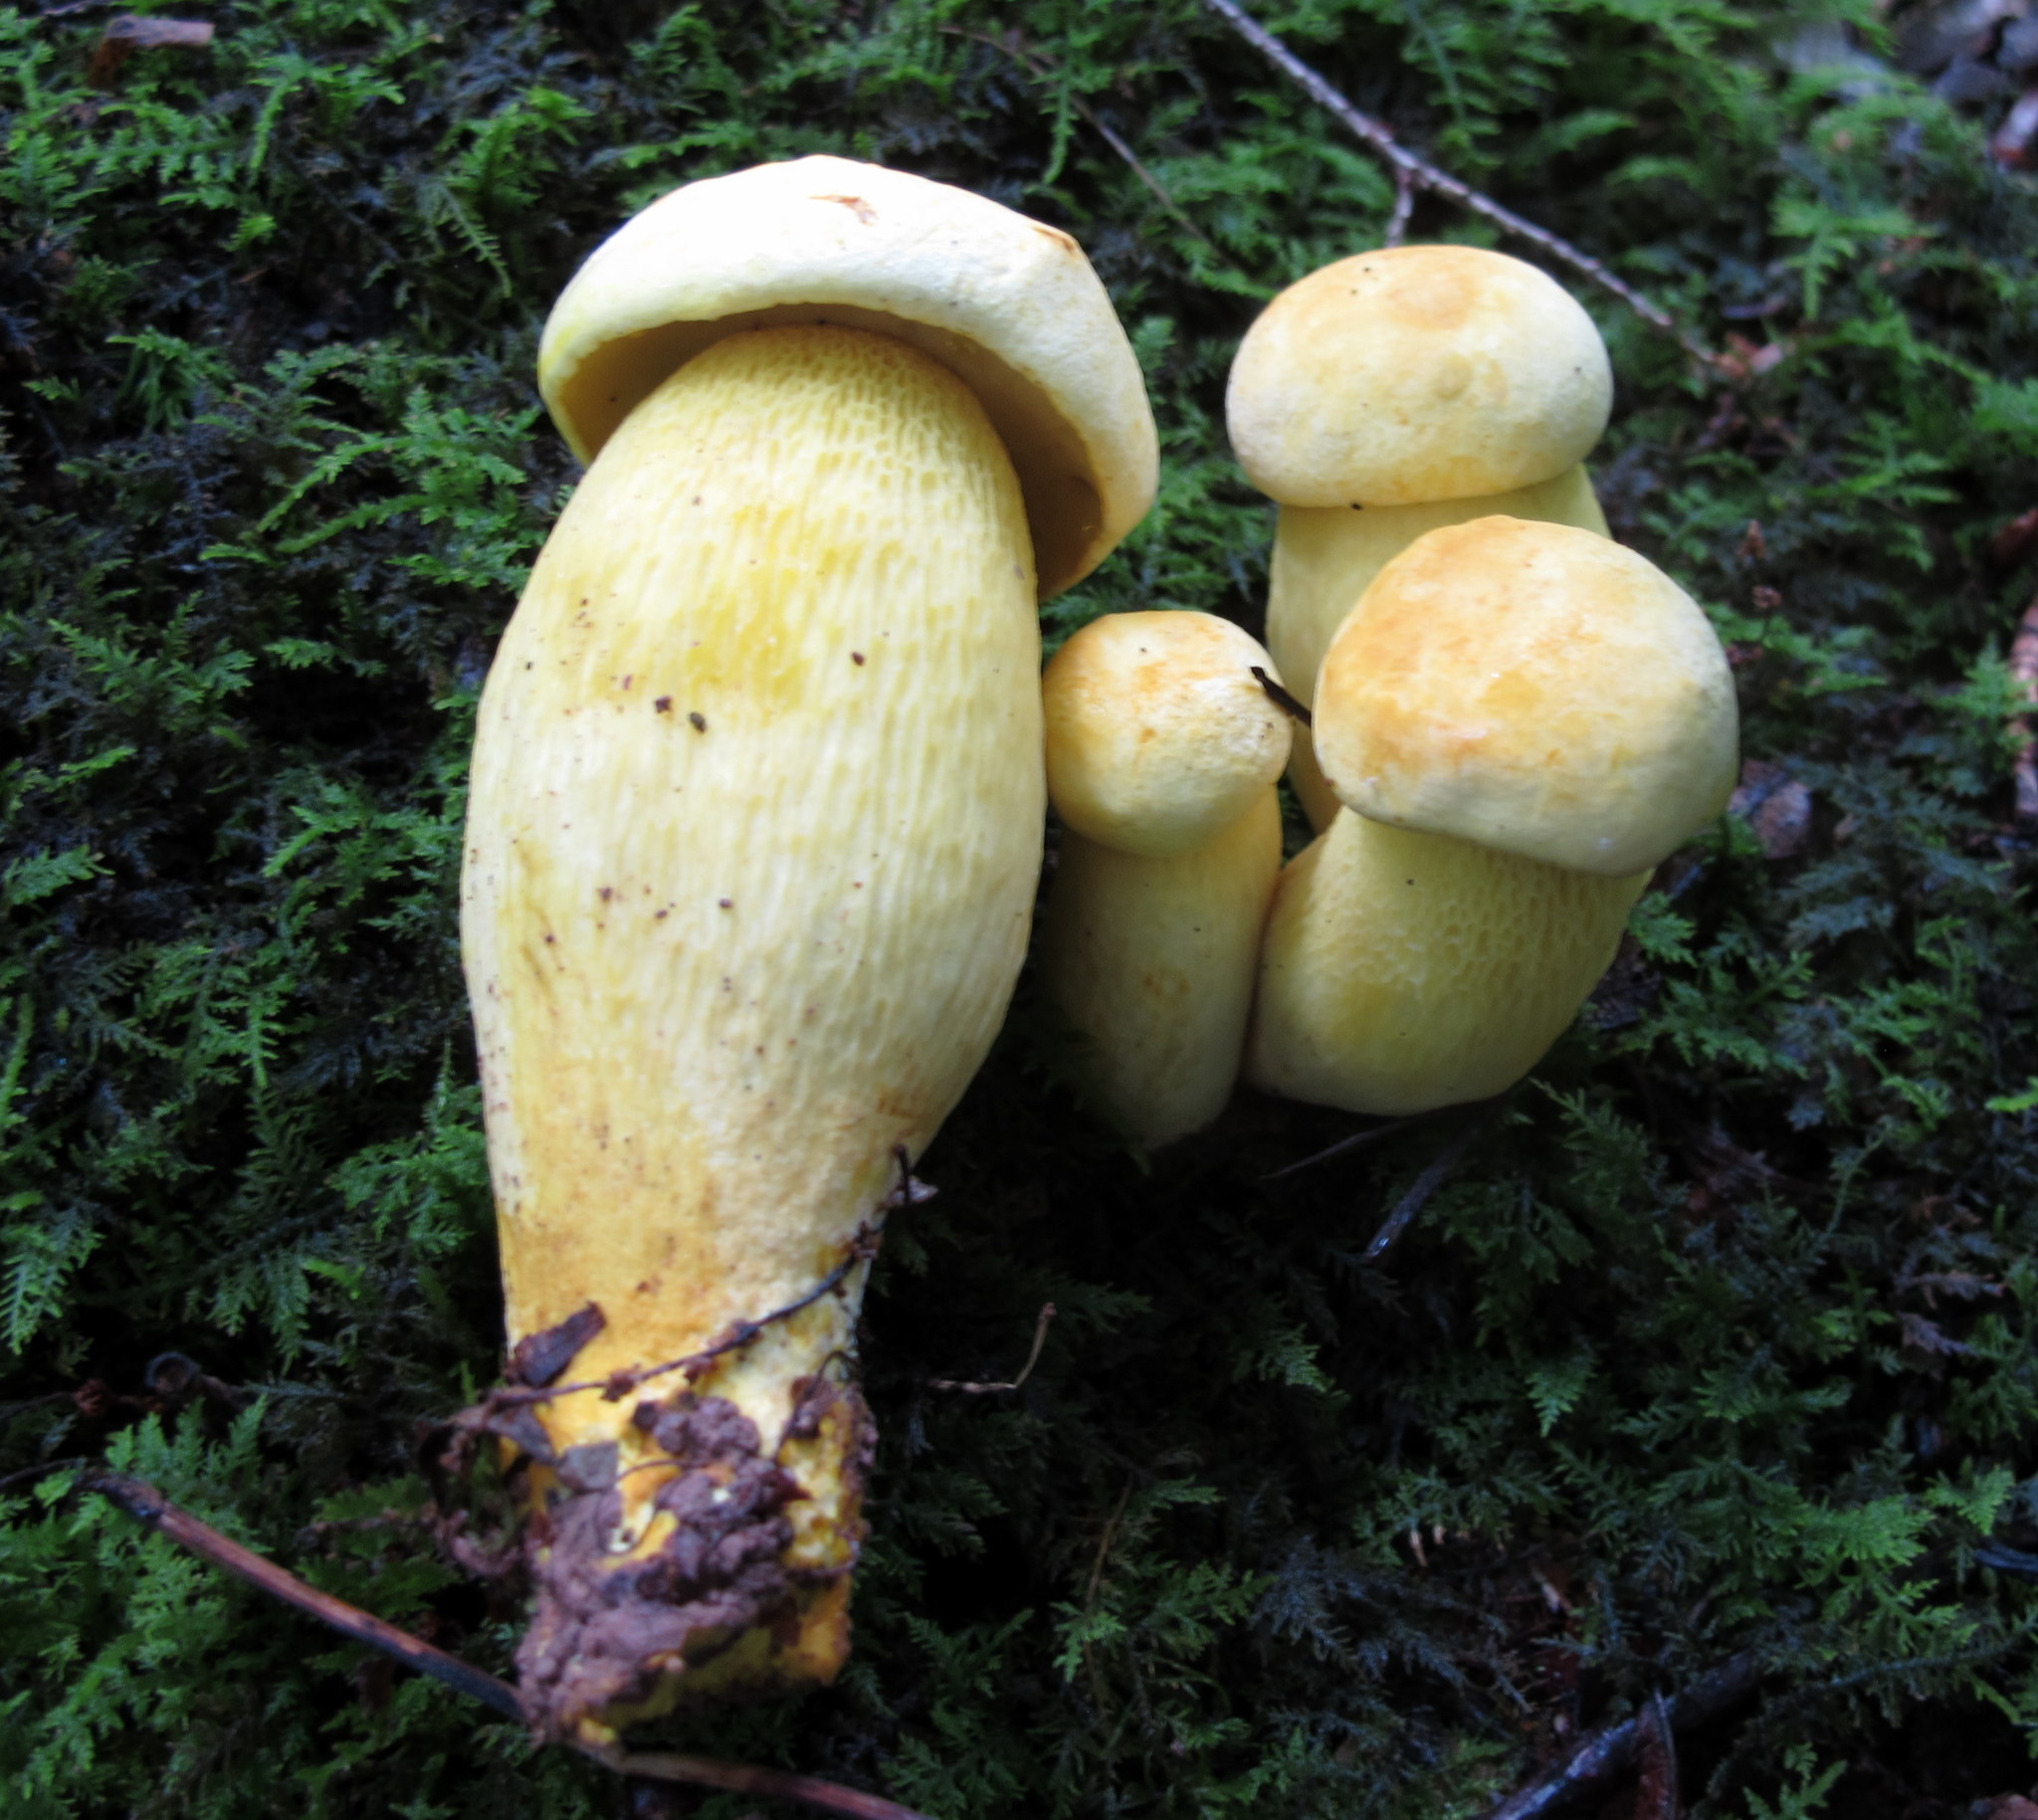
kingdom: Fungi
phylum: Basidiomycota
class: Agaricomycetes
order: Boletales
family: Boletaceae
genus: Retiboletus
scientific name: Retiboletus ornatipes
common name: Ornate-stalked bolete
